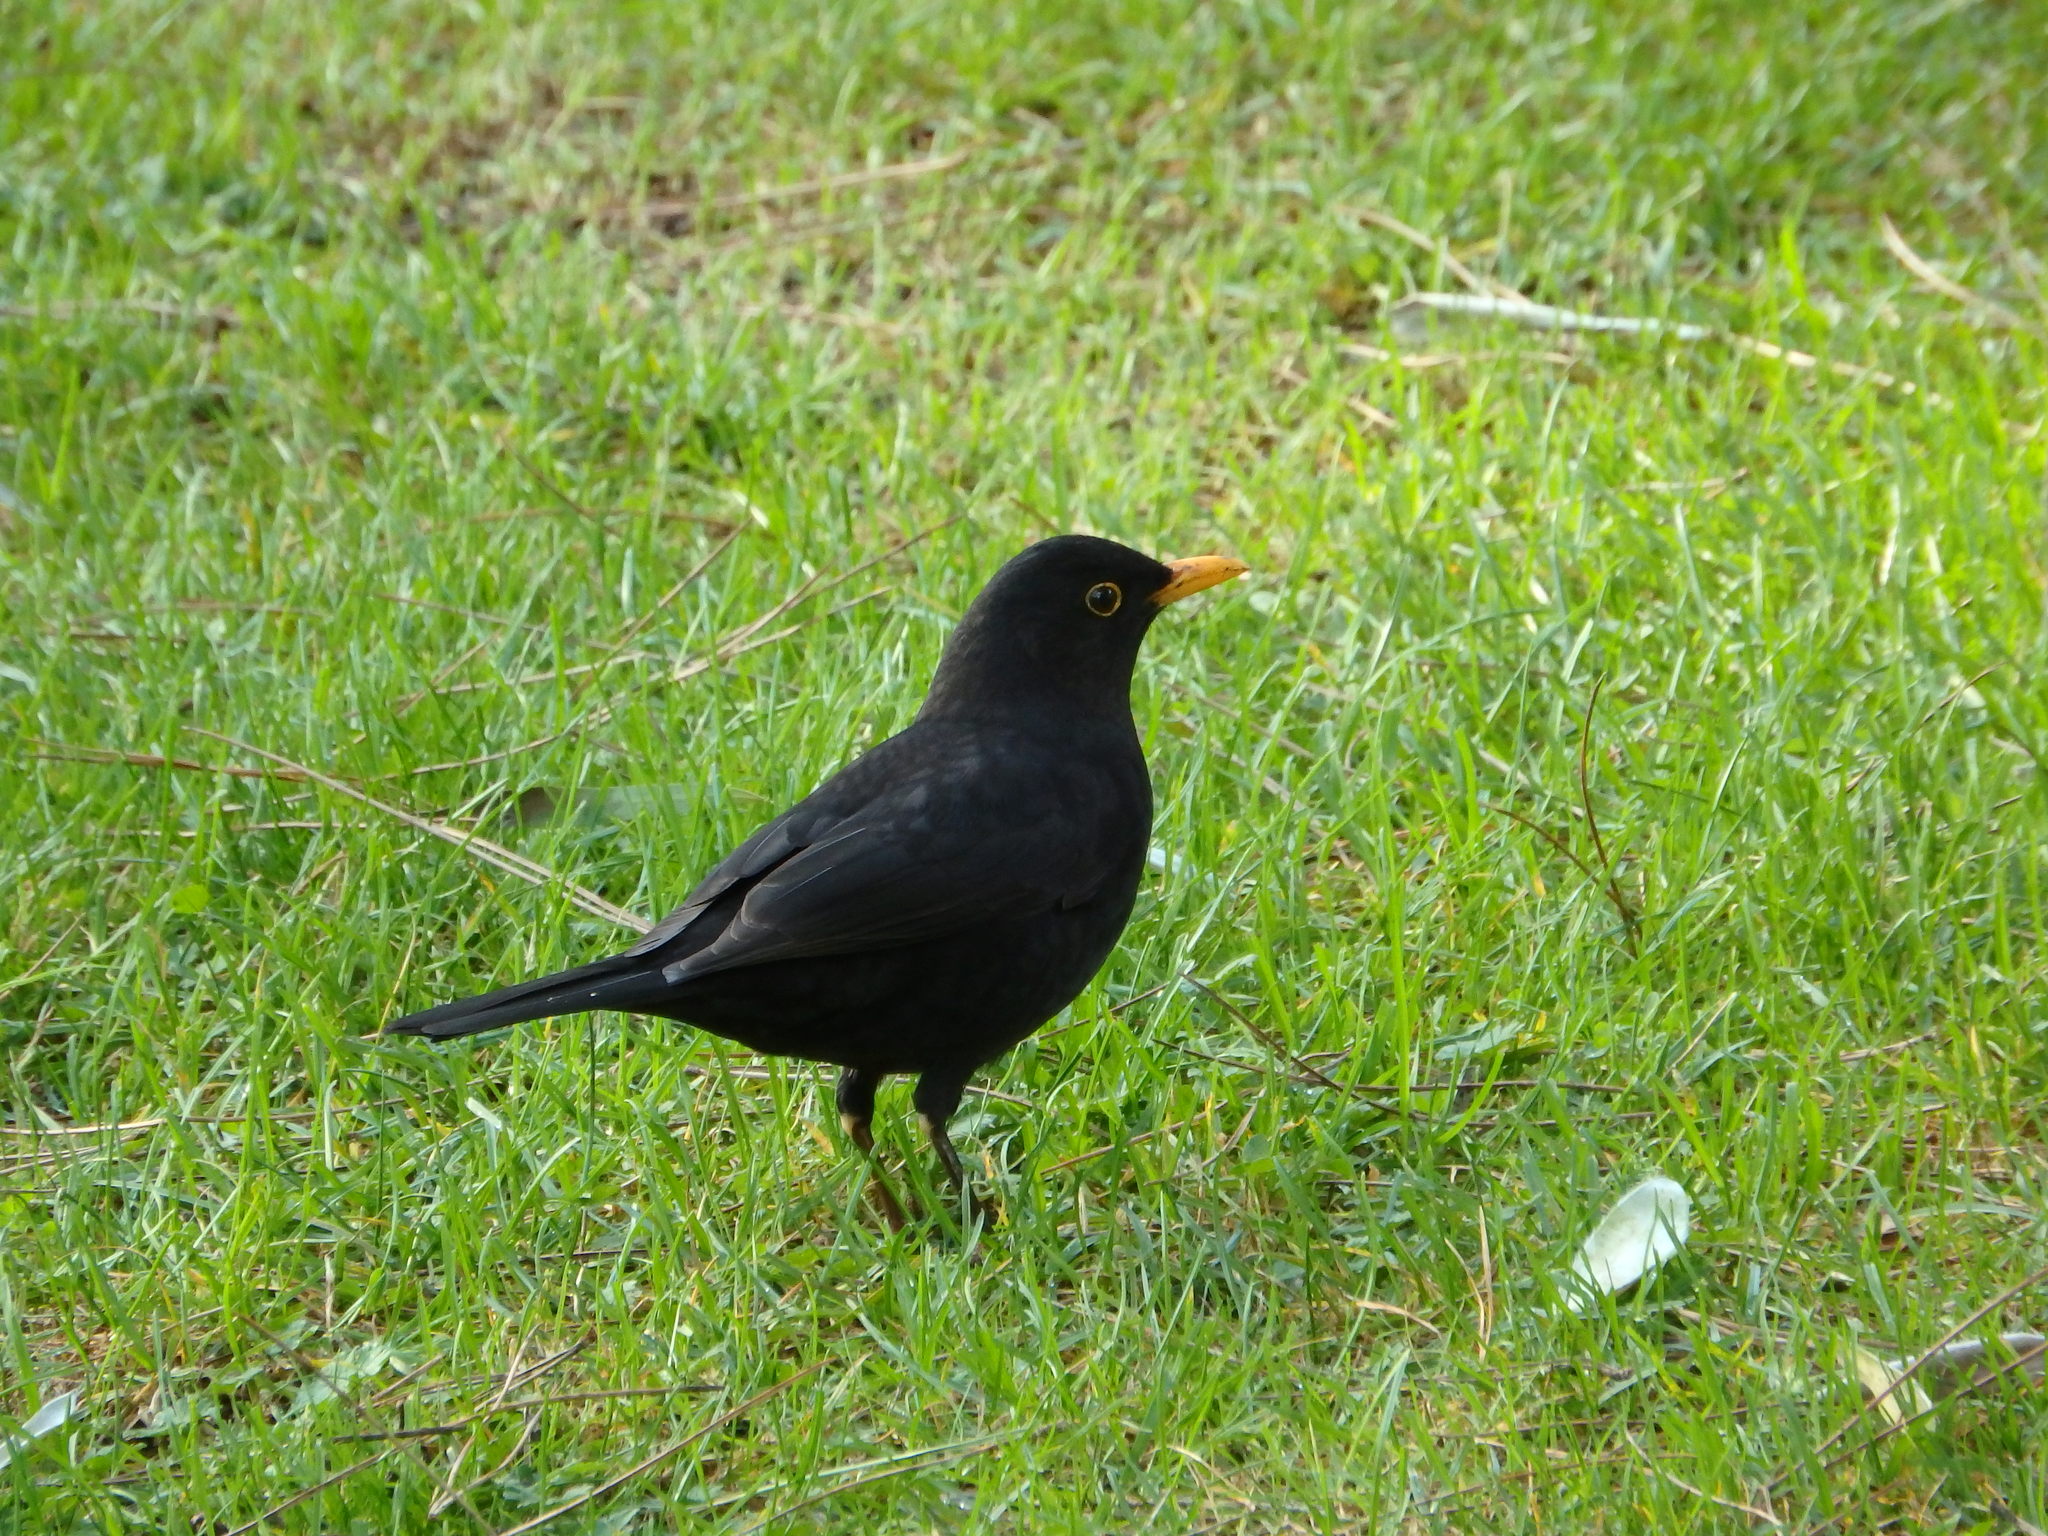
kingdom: Animalia
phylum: Chordata
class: Aves
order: Passeriformes
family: Turdidae
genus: Turdus
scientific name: Turdus merula
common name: Common blackbird
